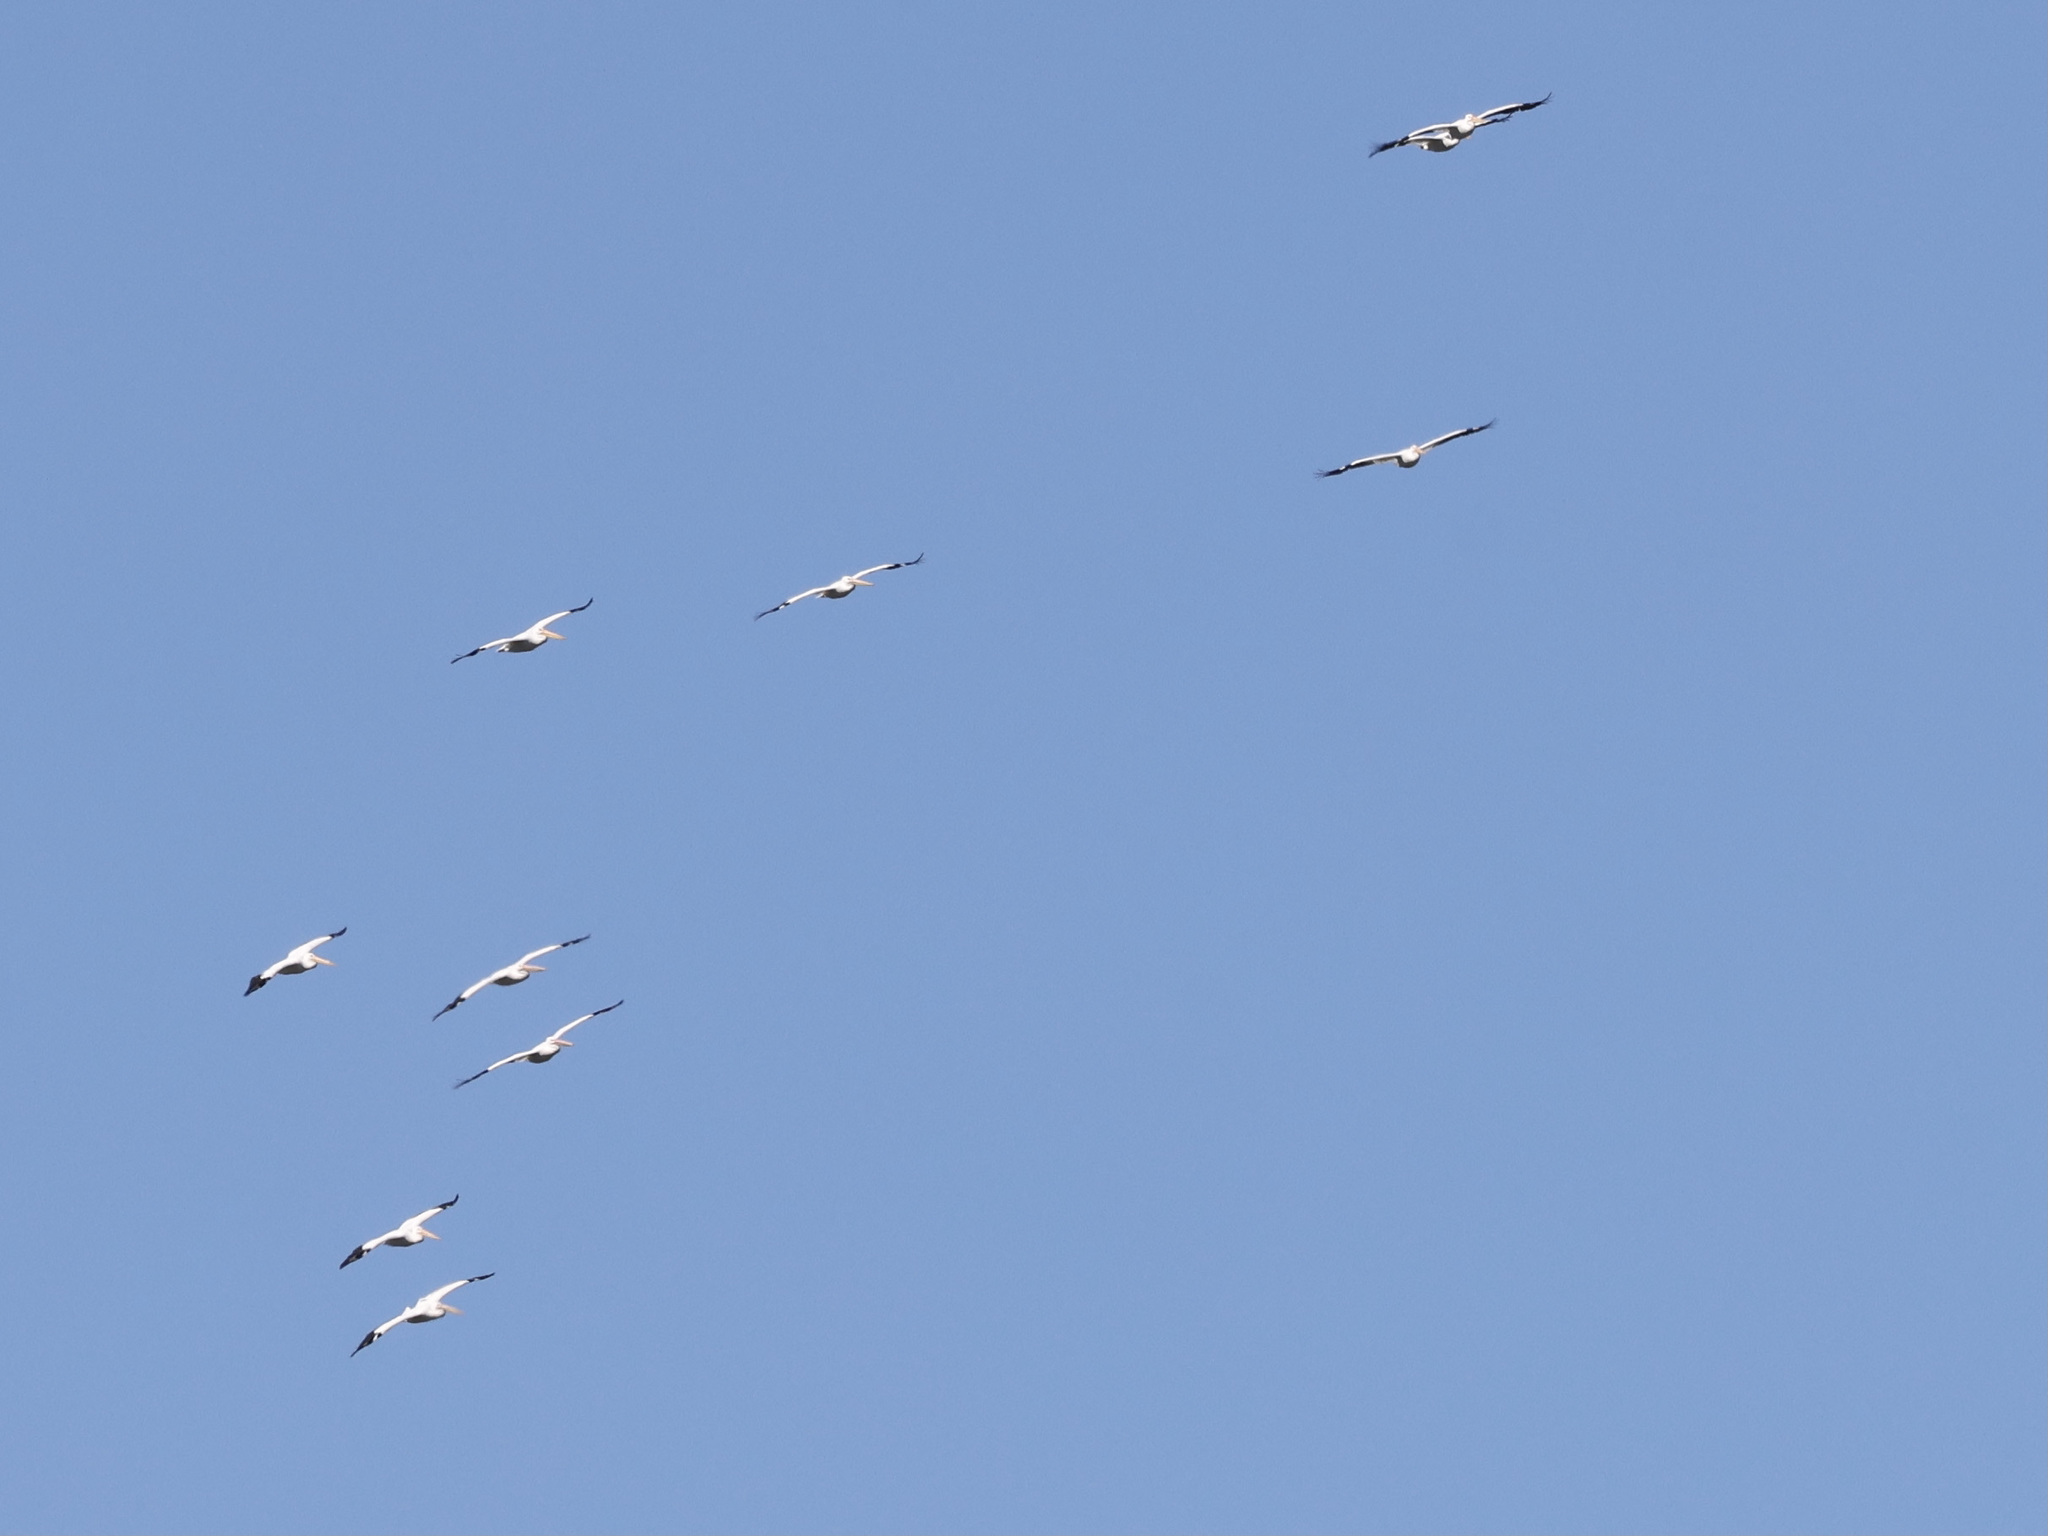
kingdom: Animalia
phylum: Chordata
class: Aves
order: Pelecaniformes
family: Pelecanidae
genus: Pelecanus
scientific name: Pelecanus erythrorhynchos
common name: American white pelican
